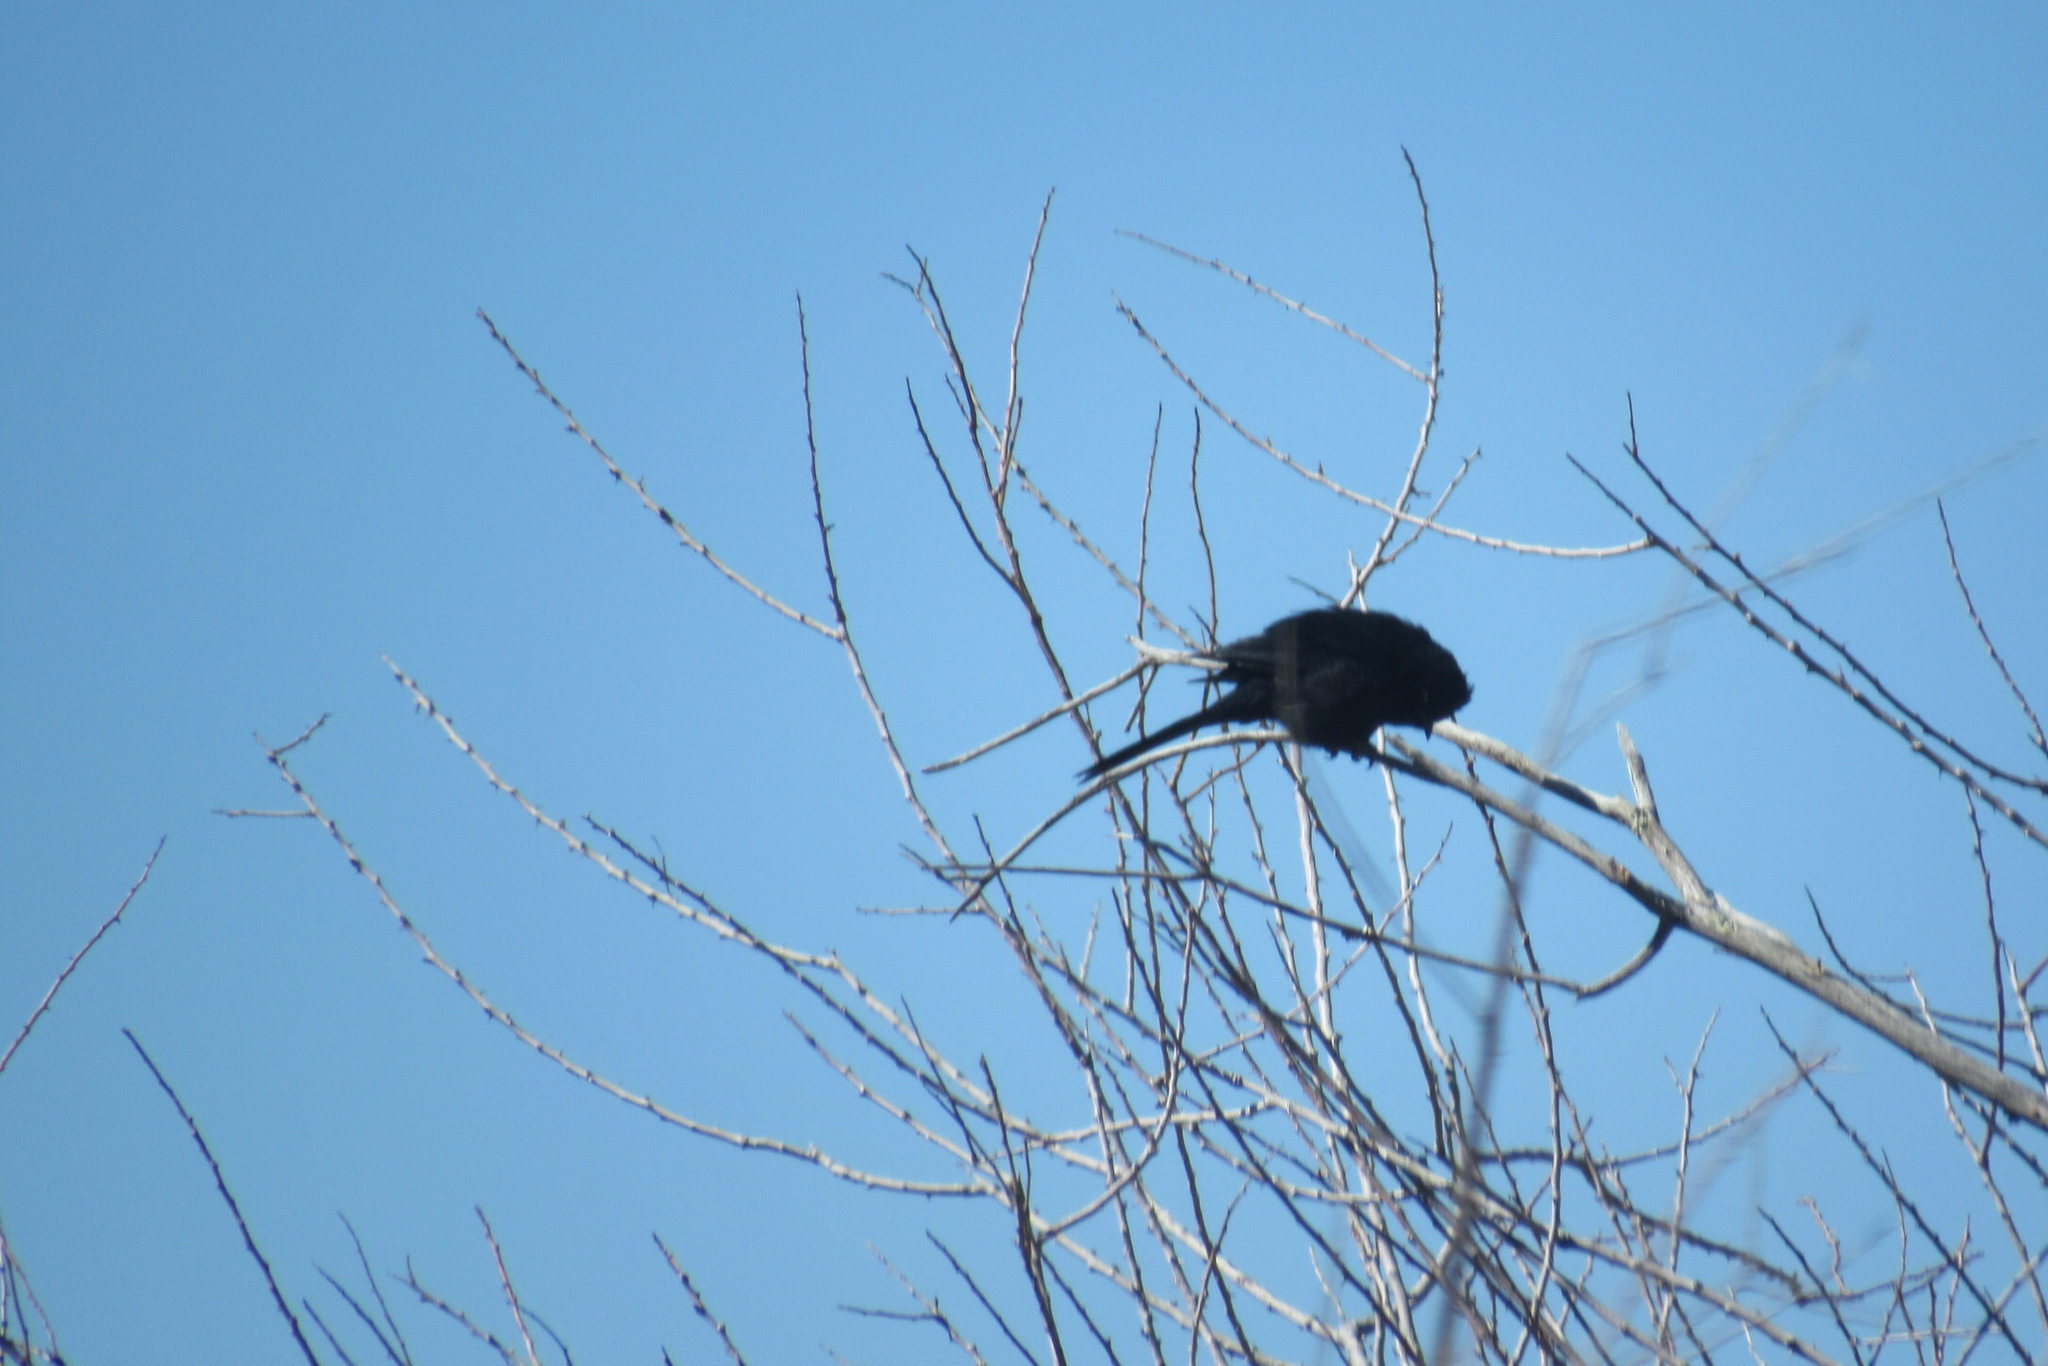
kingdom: Animalia
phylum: Chordata
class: Aves
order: Passeriformes
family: Ptilogonatidae
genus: Phainopepla
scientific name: Phainopepla nitens
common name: Phainopepla
